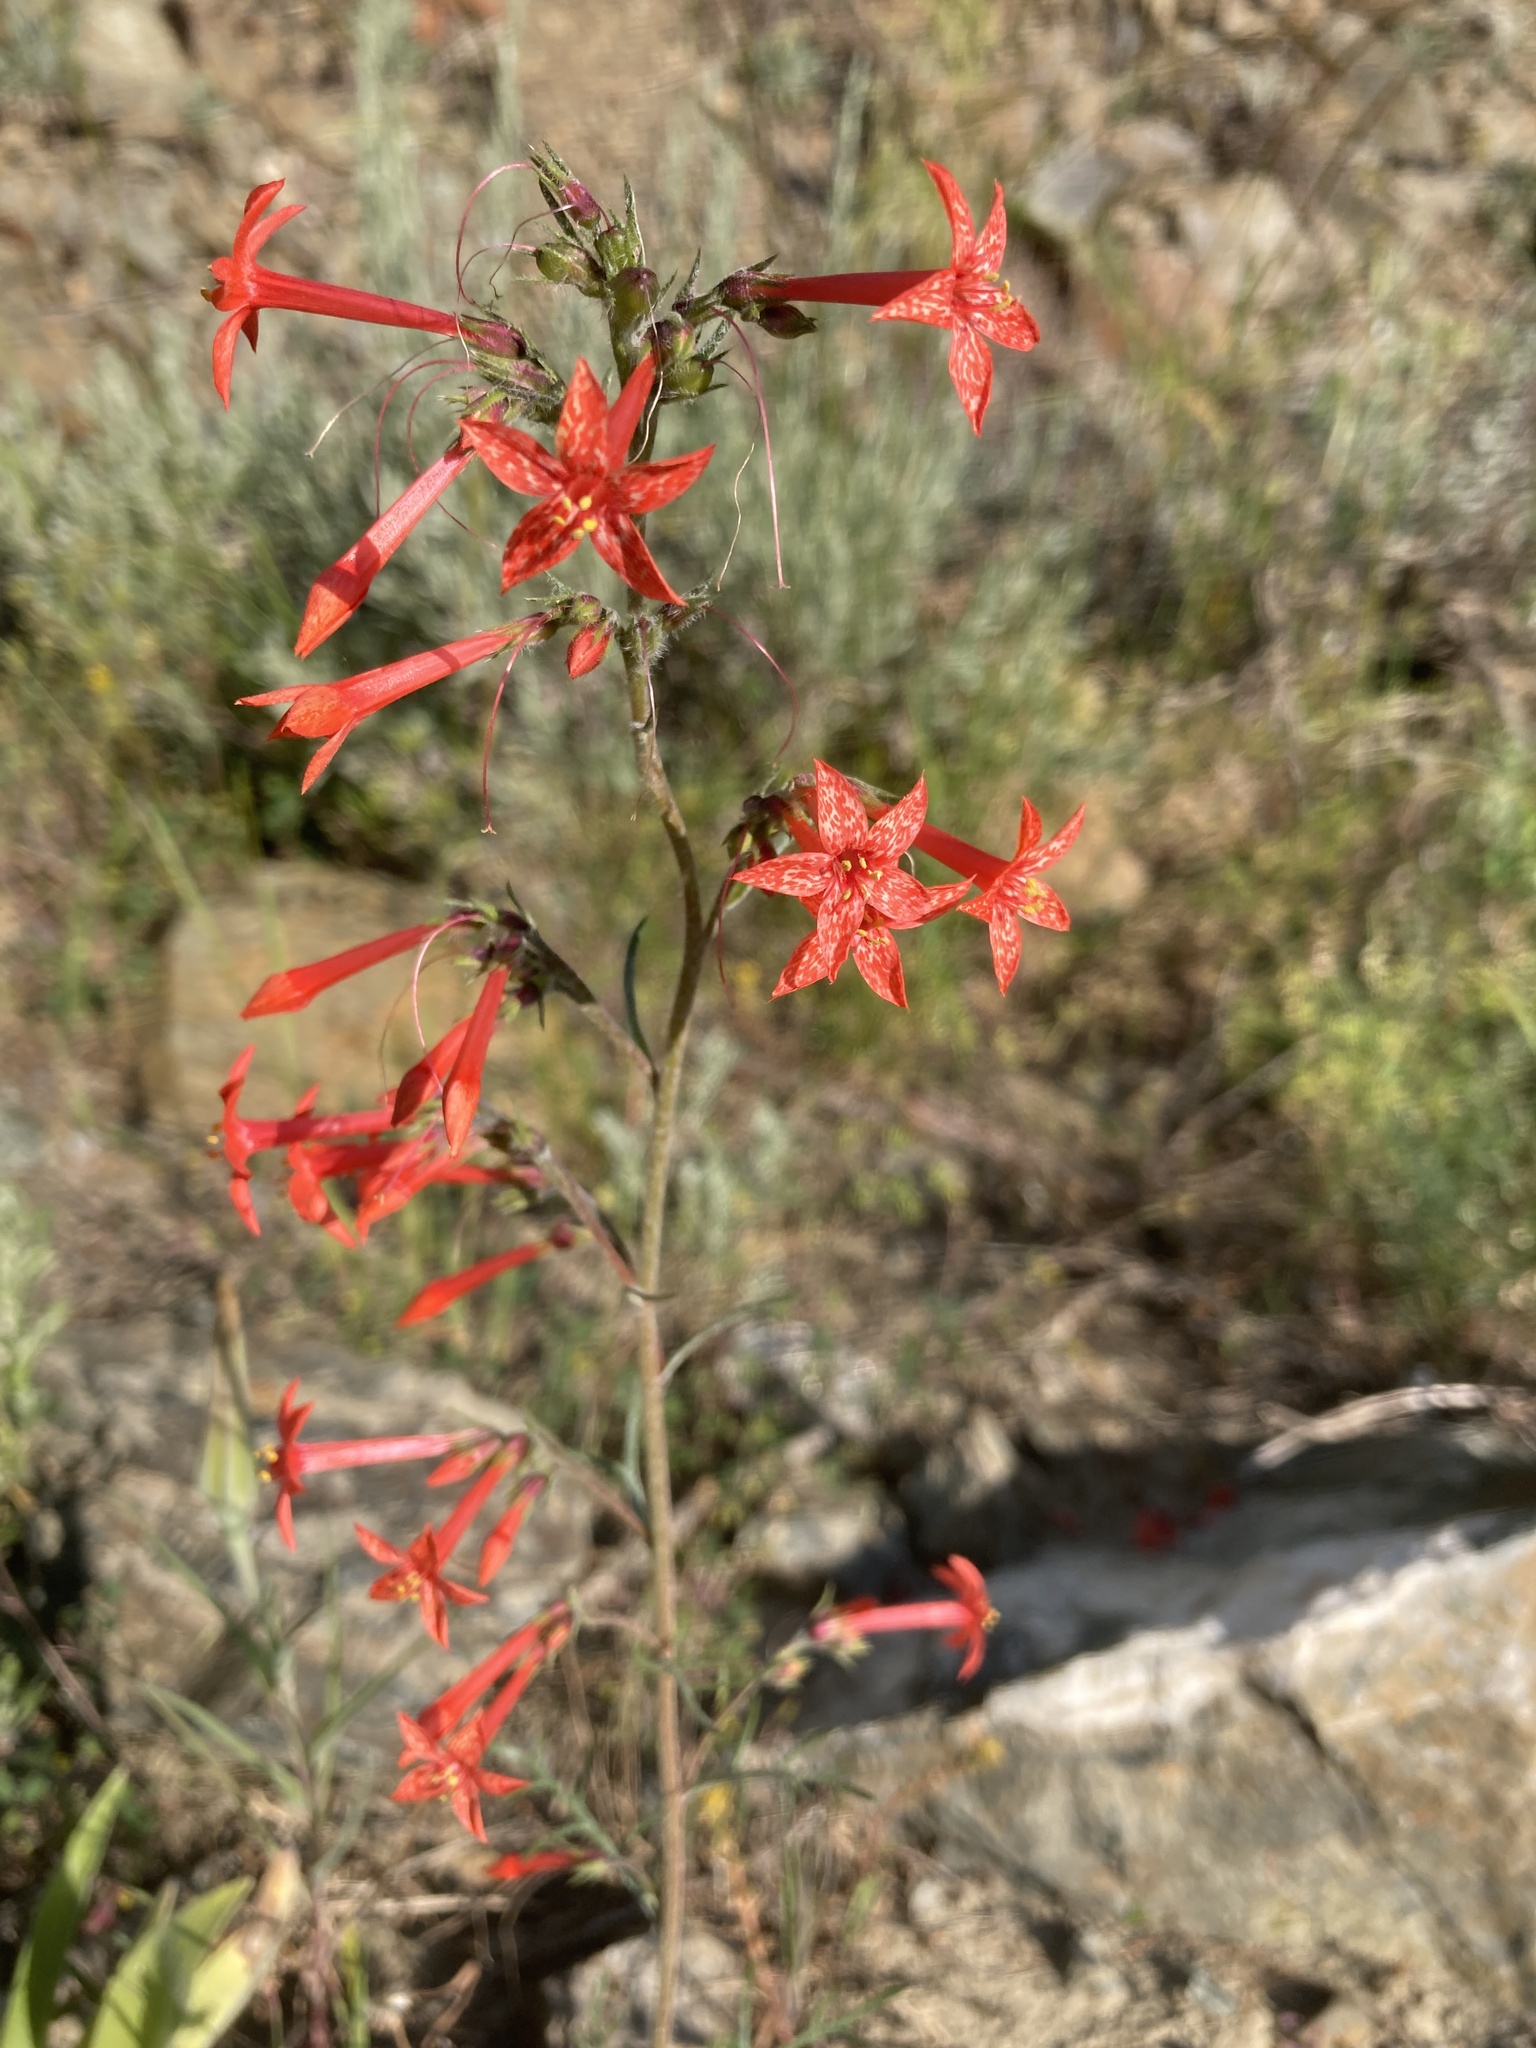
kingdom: Plantae
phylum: Tracheophyta
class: Magnoliopsida
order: Ericales
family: Polemoniaceae
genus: Ipomopsis
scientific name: Ipomopsis aggregata
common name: Scarlet gilia
